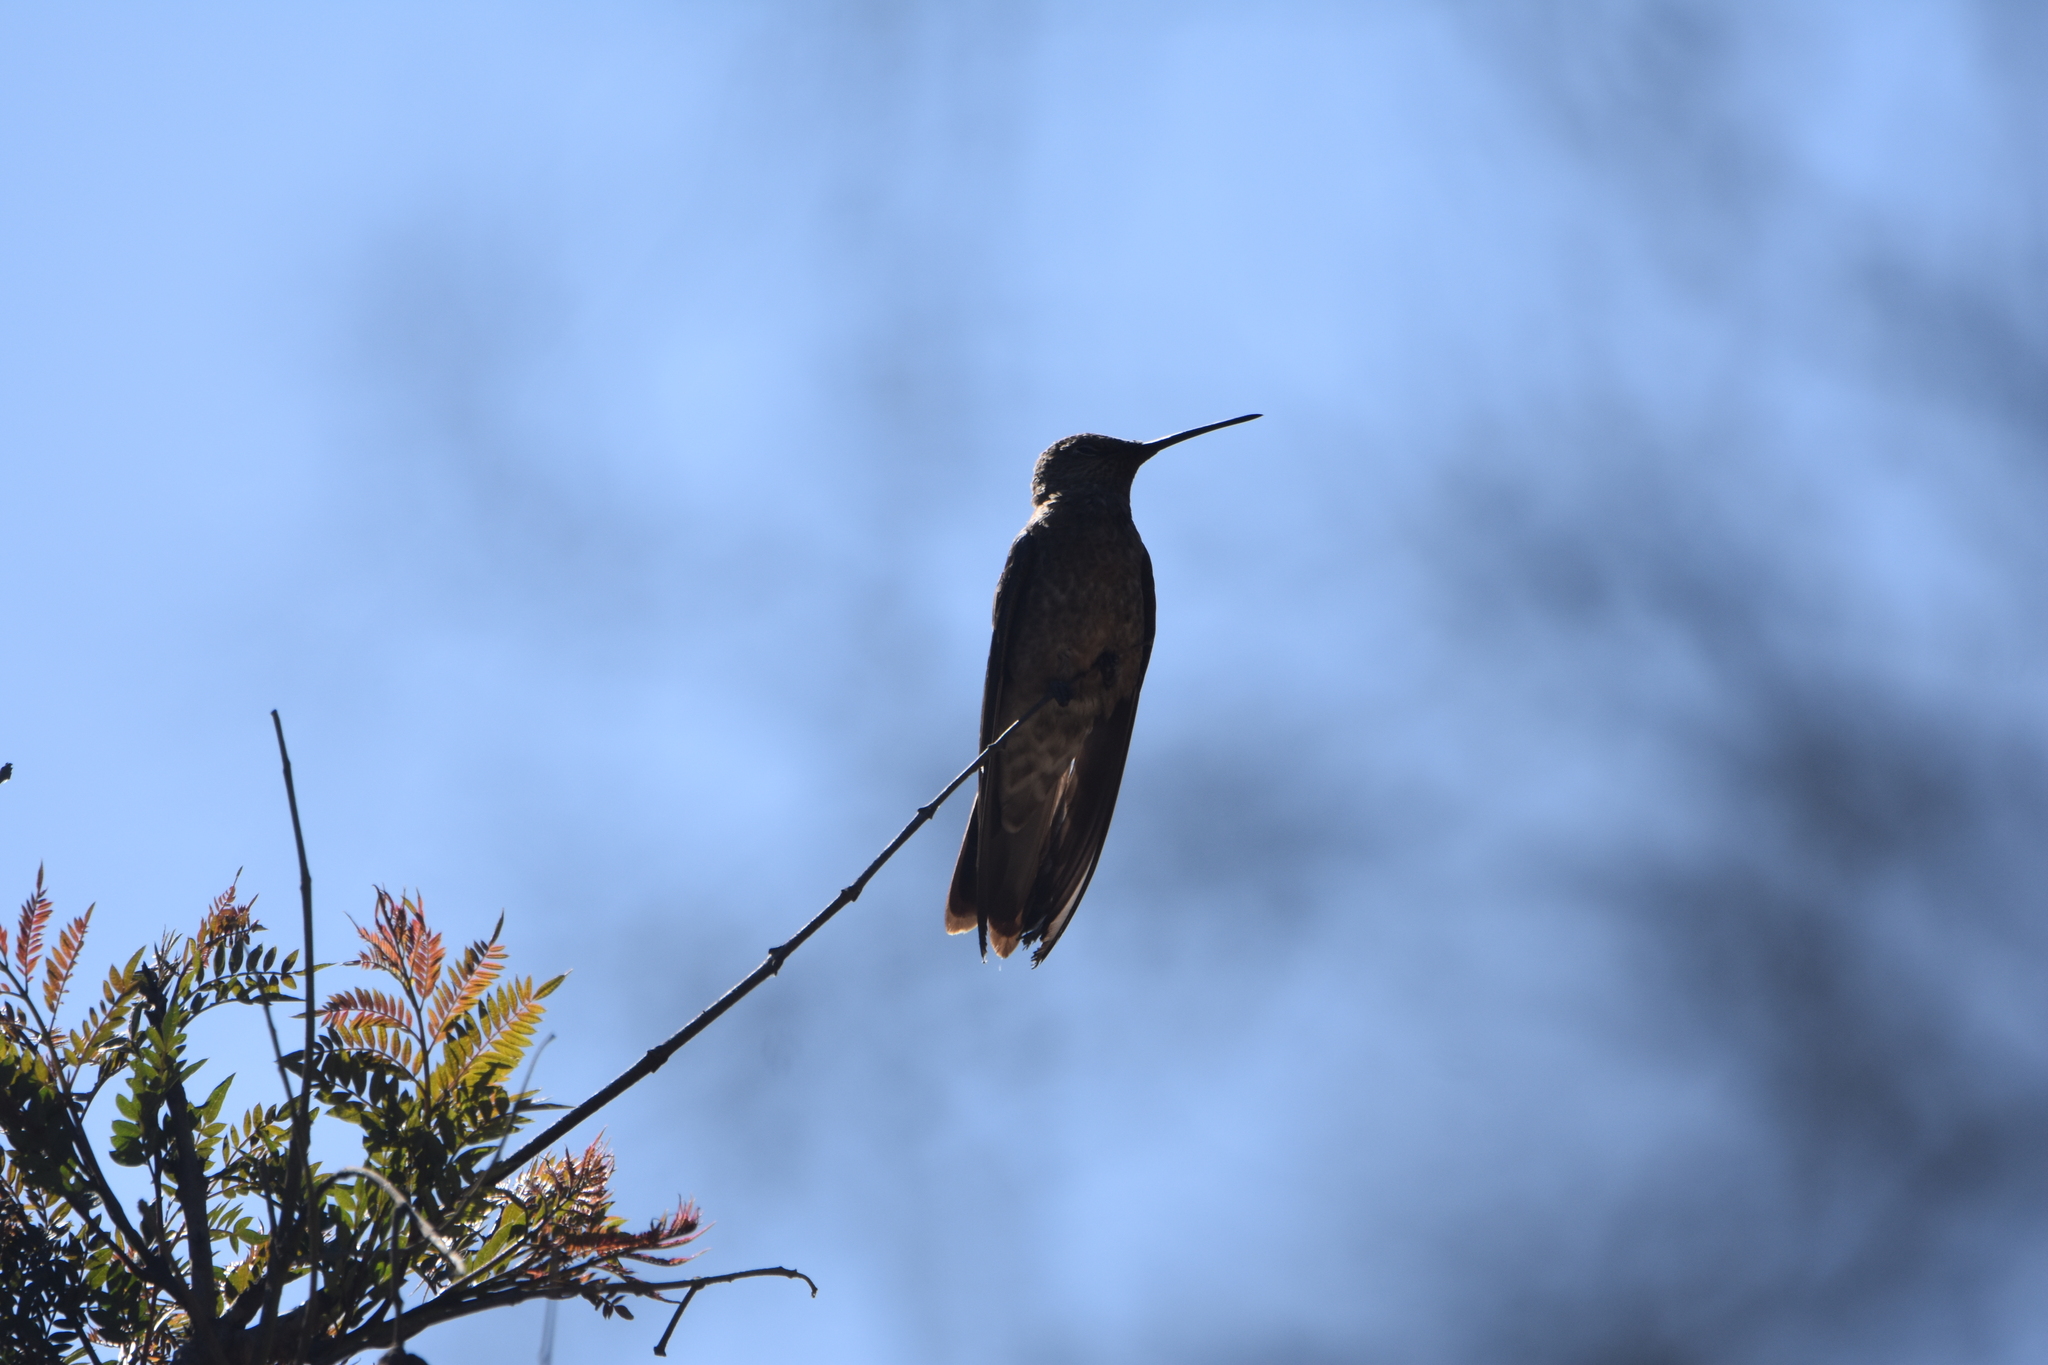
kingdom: Animalia
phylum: Chordata
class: Aves
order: Apodiformes
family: Trochilidae
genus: Patagona
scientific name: Patagona gigas
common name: Giant hummingbird
